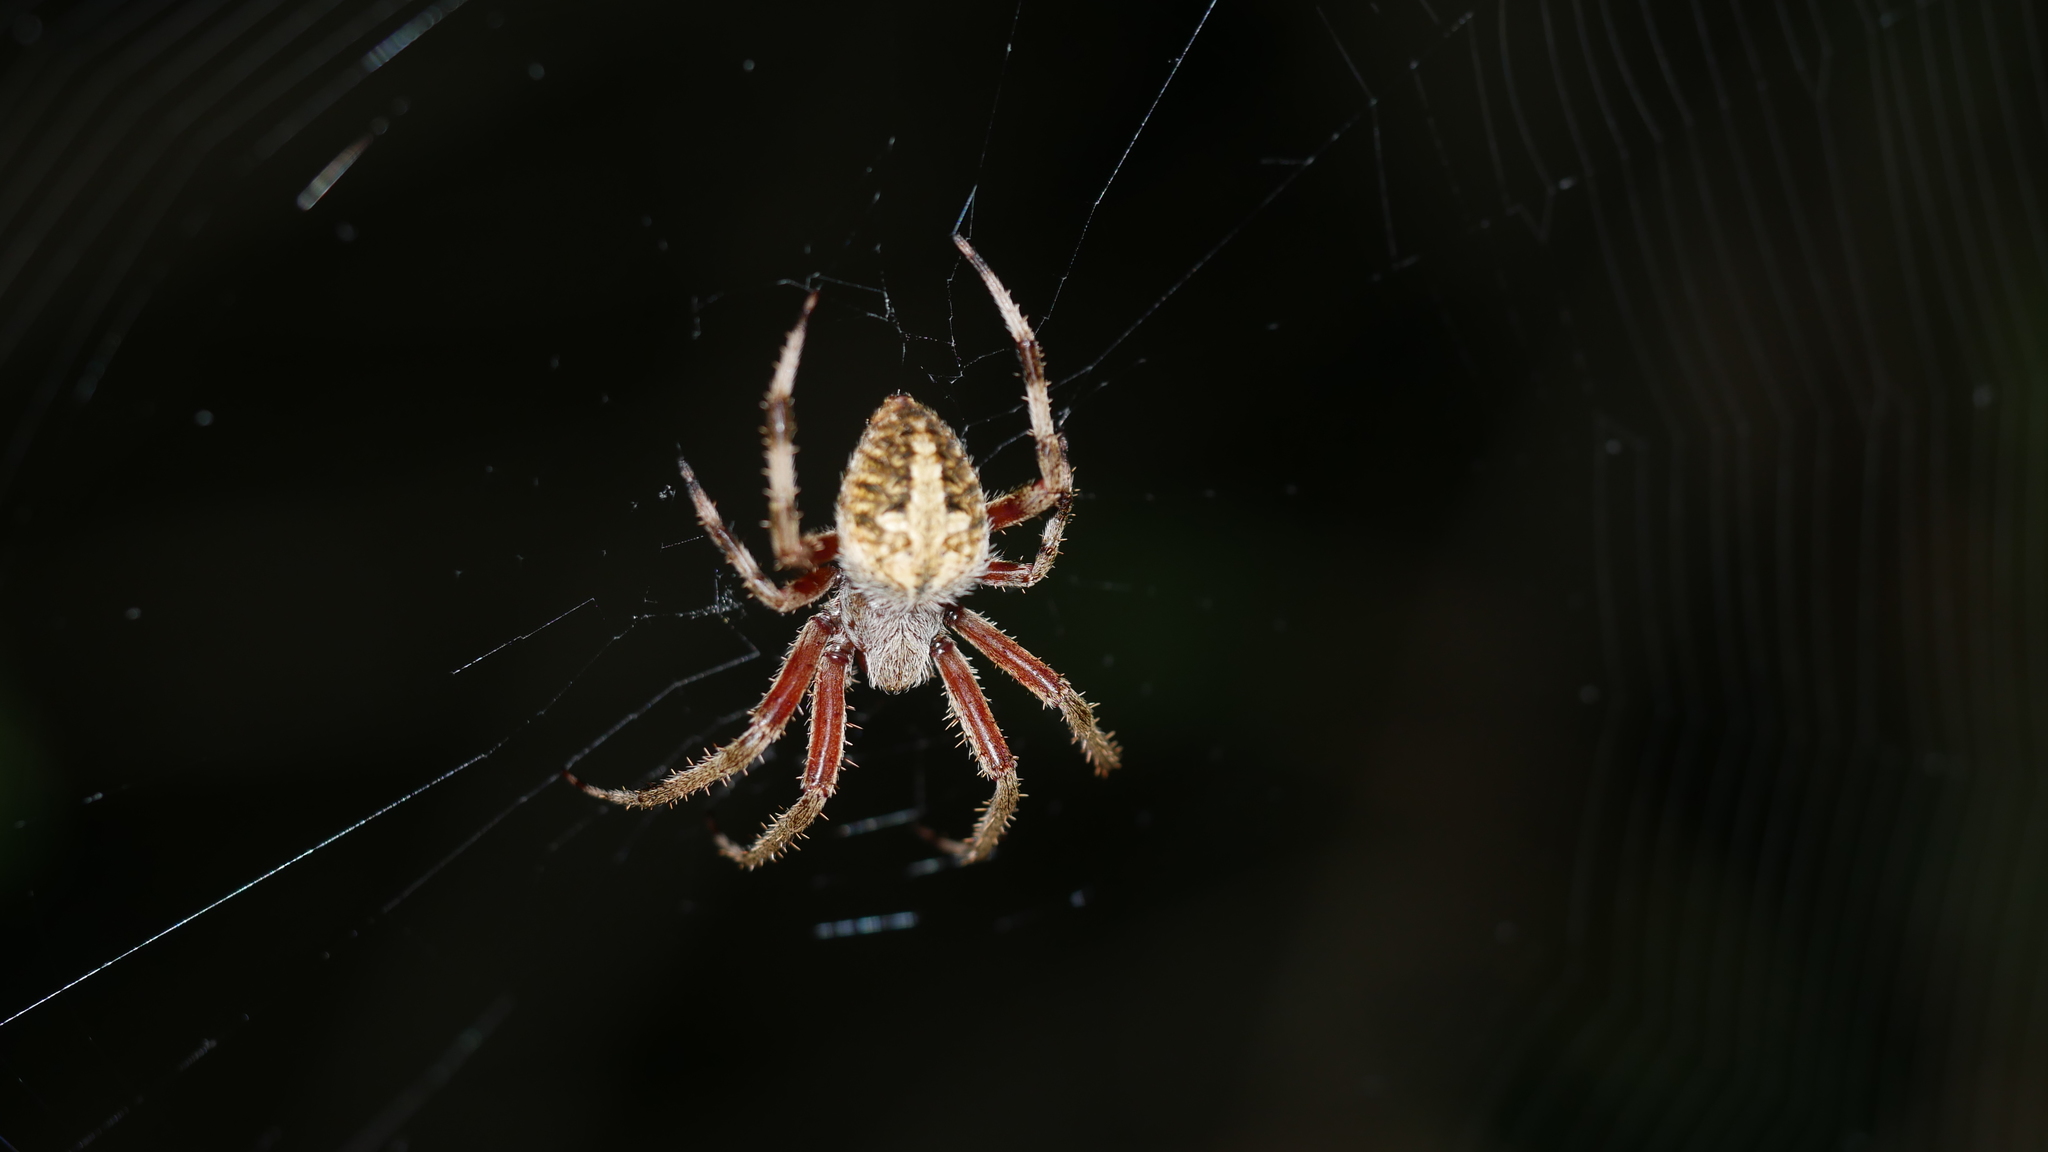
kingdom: Animalia
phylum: Arthropoda
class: Arachnida
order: Araneae
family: Araneidae
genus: Neoscona
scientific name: Neoscona
